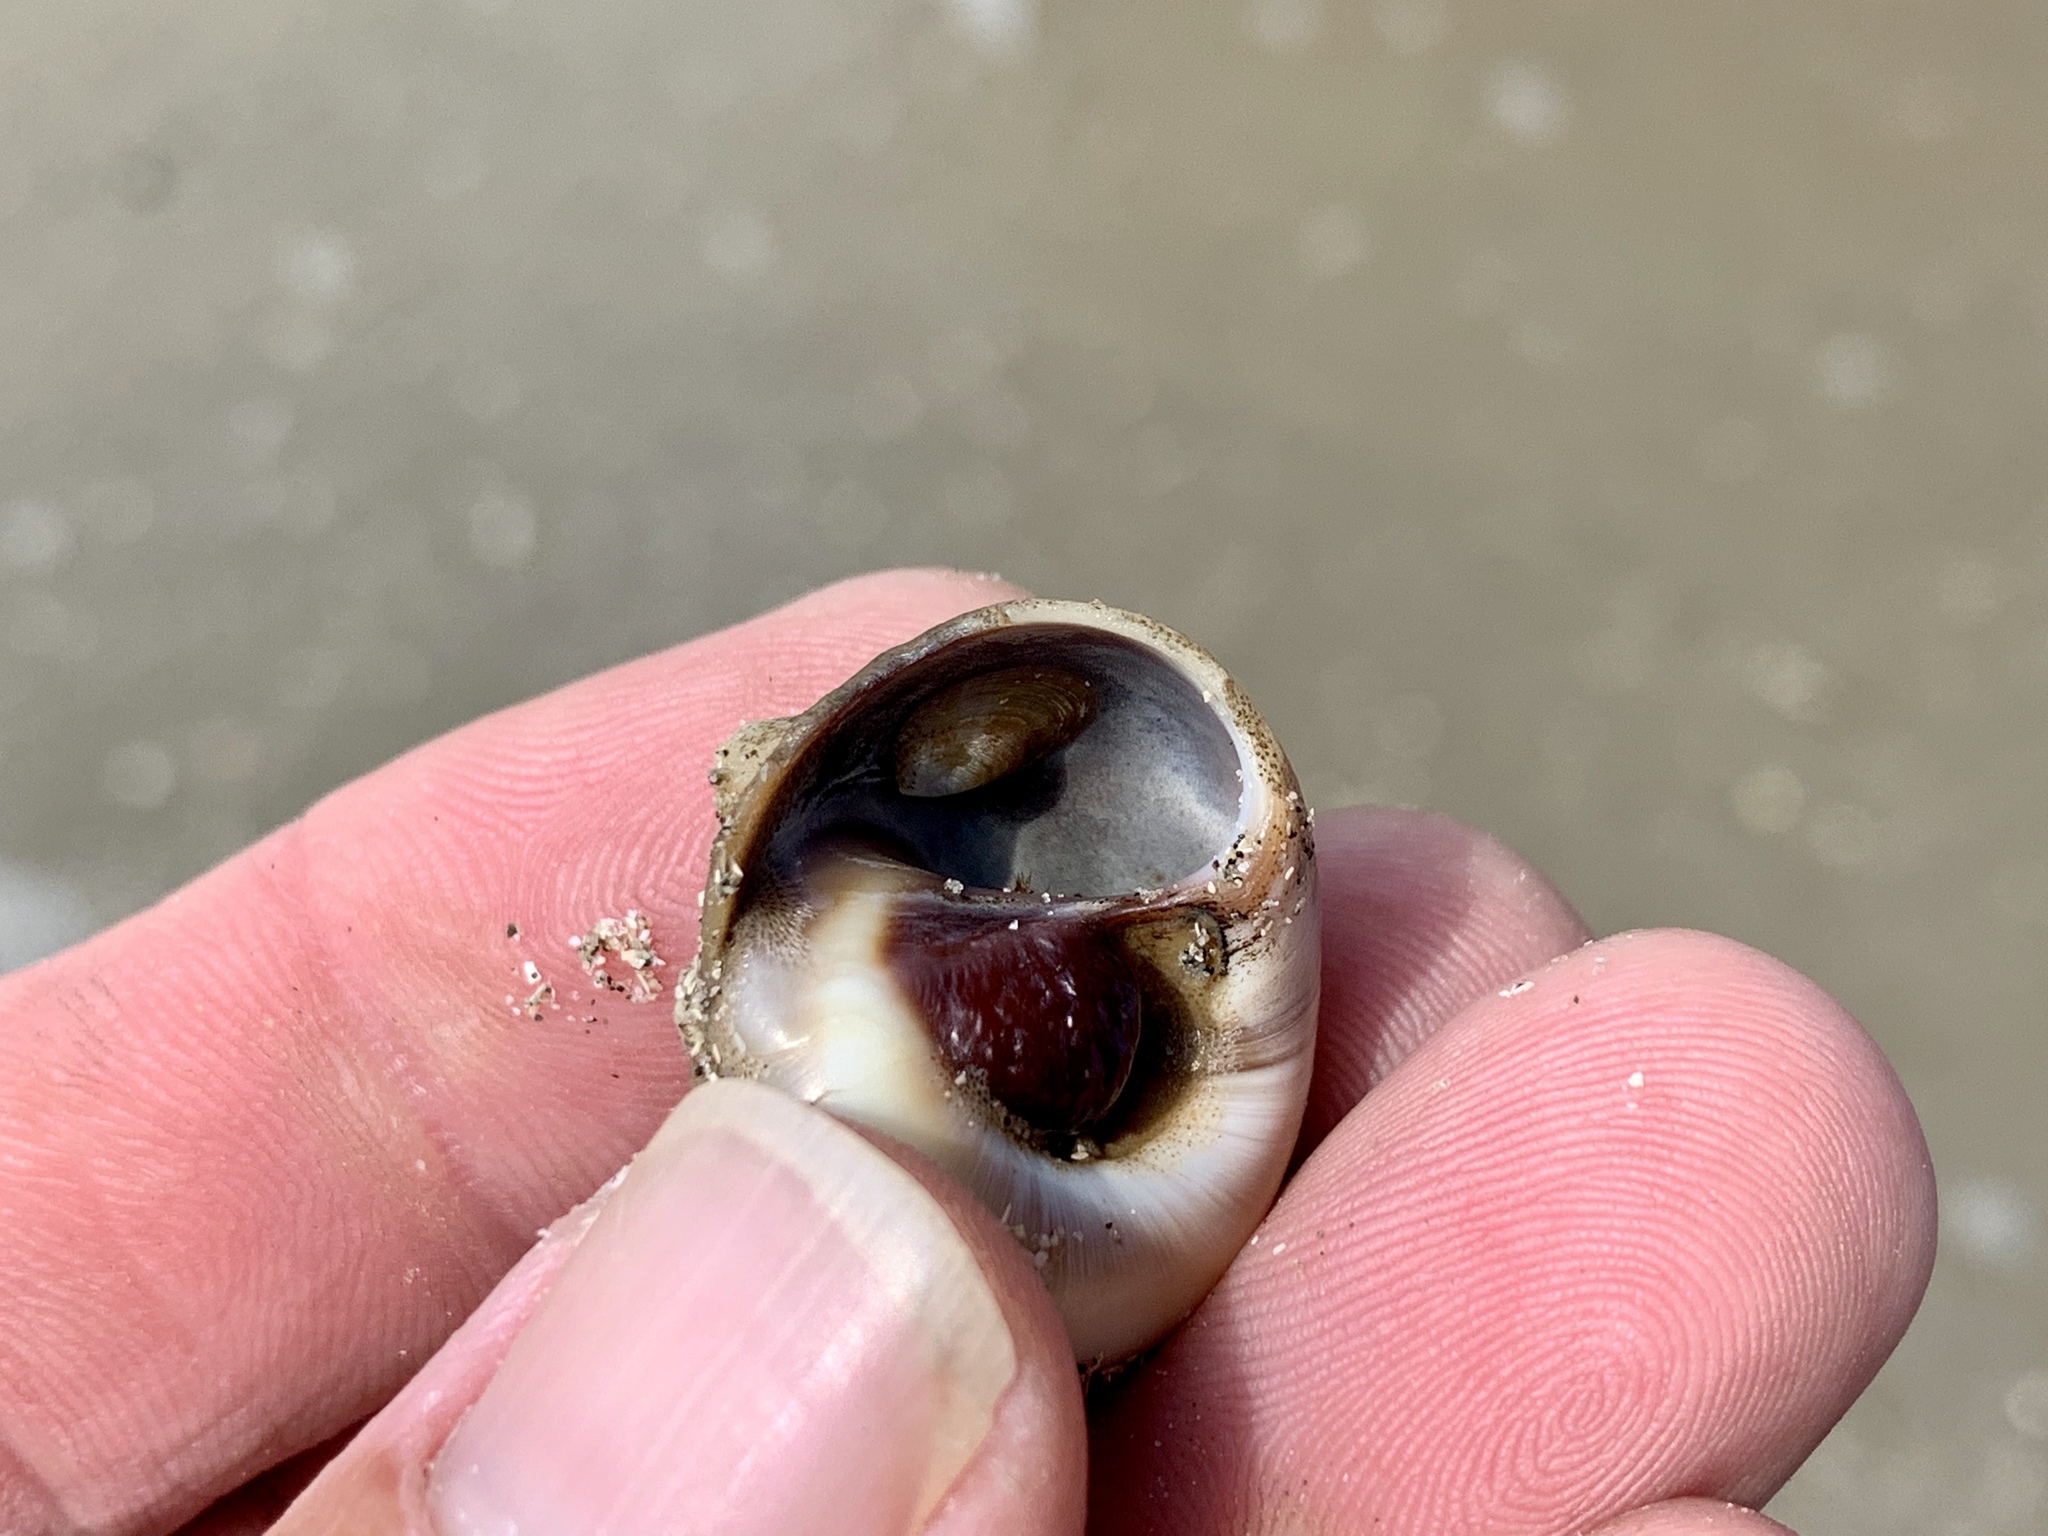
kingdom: Animalia
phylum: Mollusca
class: Gastropoda
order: Littorinimorpha
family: Naticidae
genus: Neverita
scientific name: Neverita delessertiana
